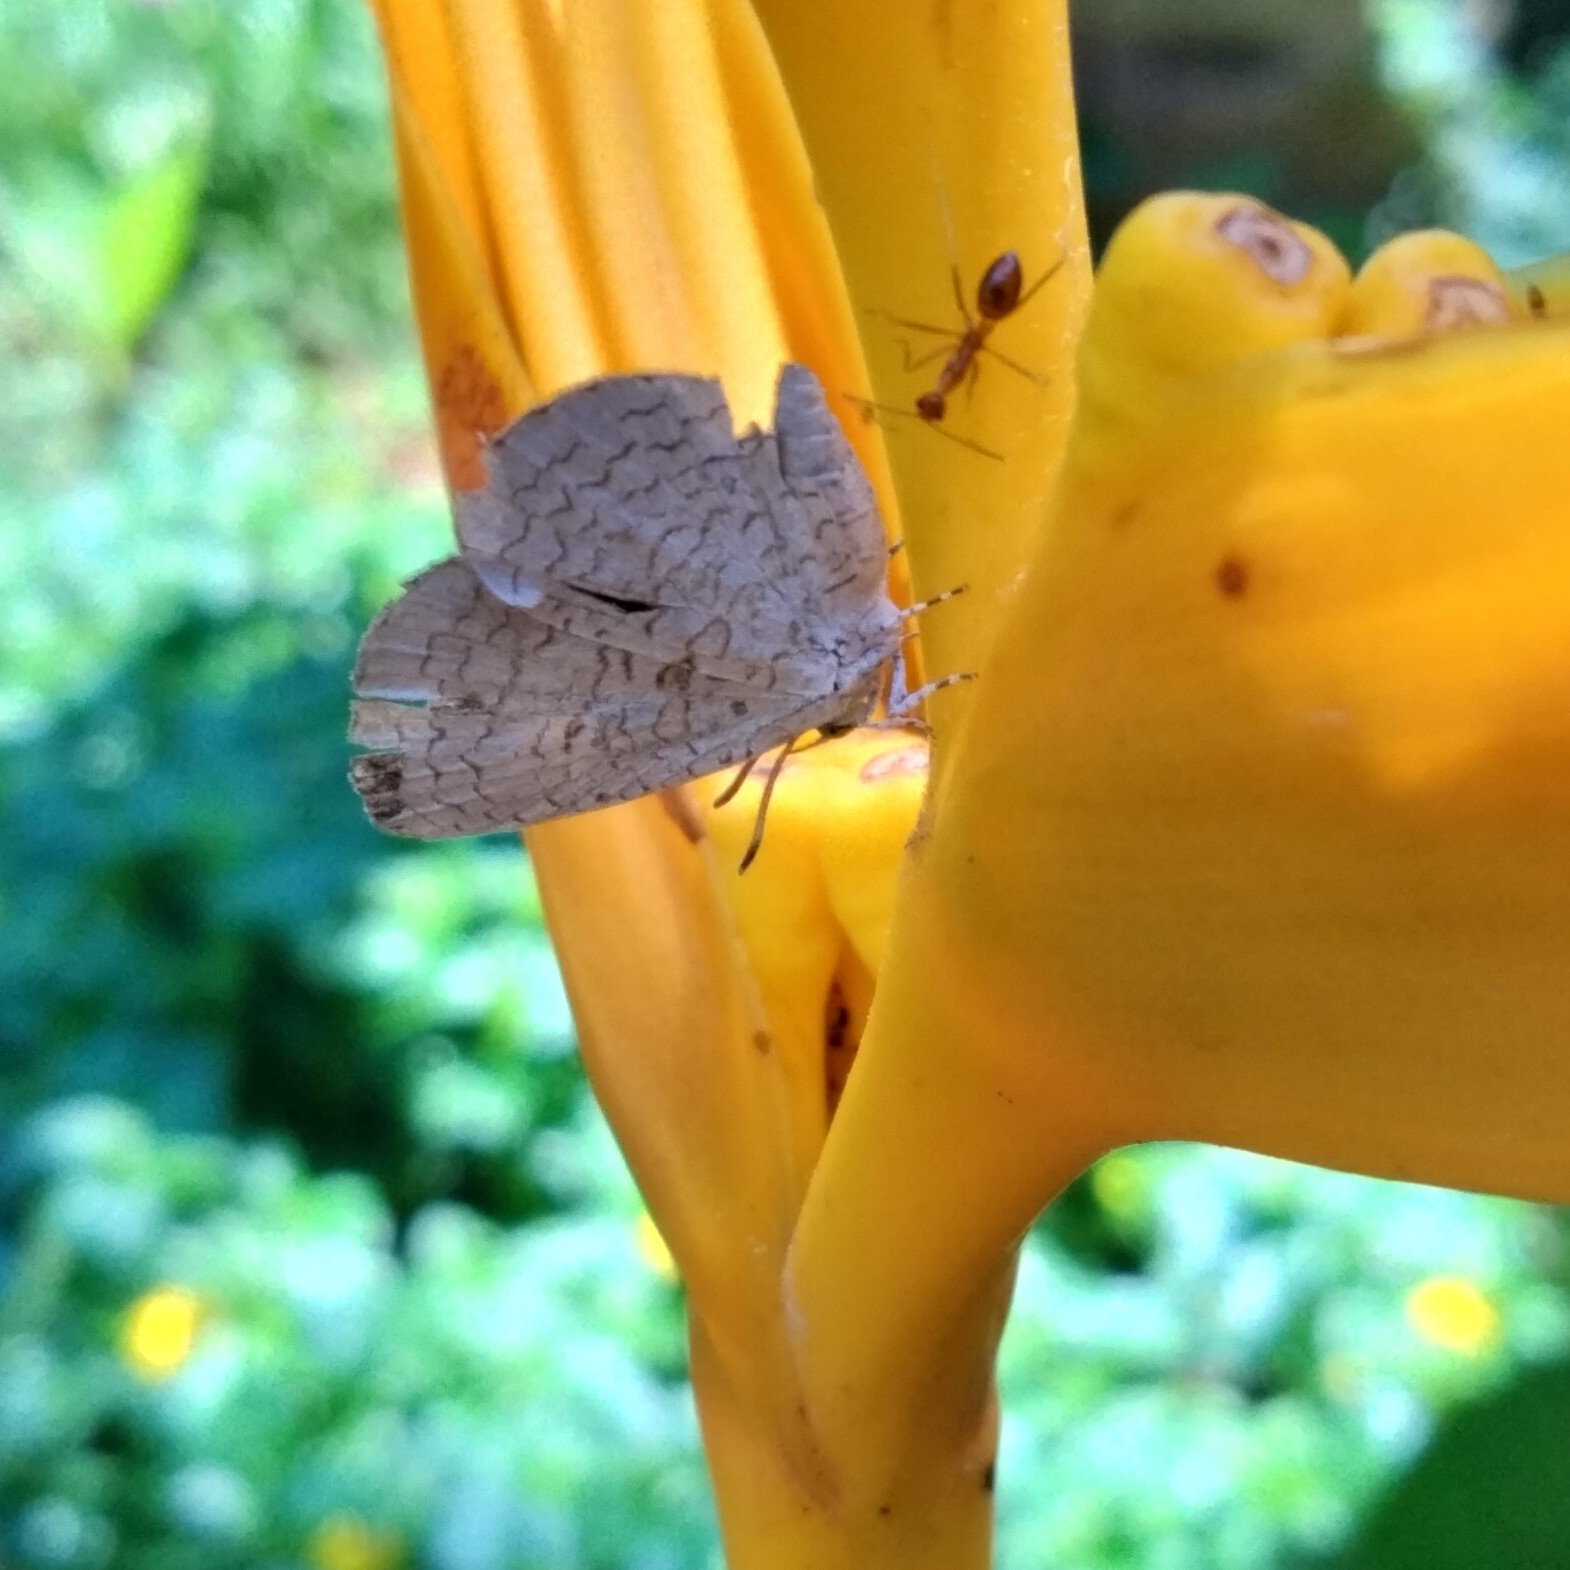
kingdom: Animalia
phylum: Arthropoda
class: Insecta
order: Lepidoptera
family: Lycaenidae
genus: Spalgis
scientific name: Spalgis epius
